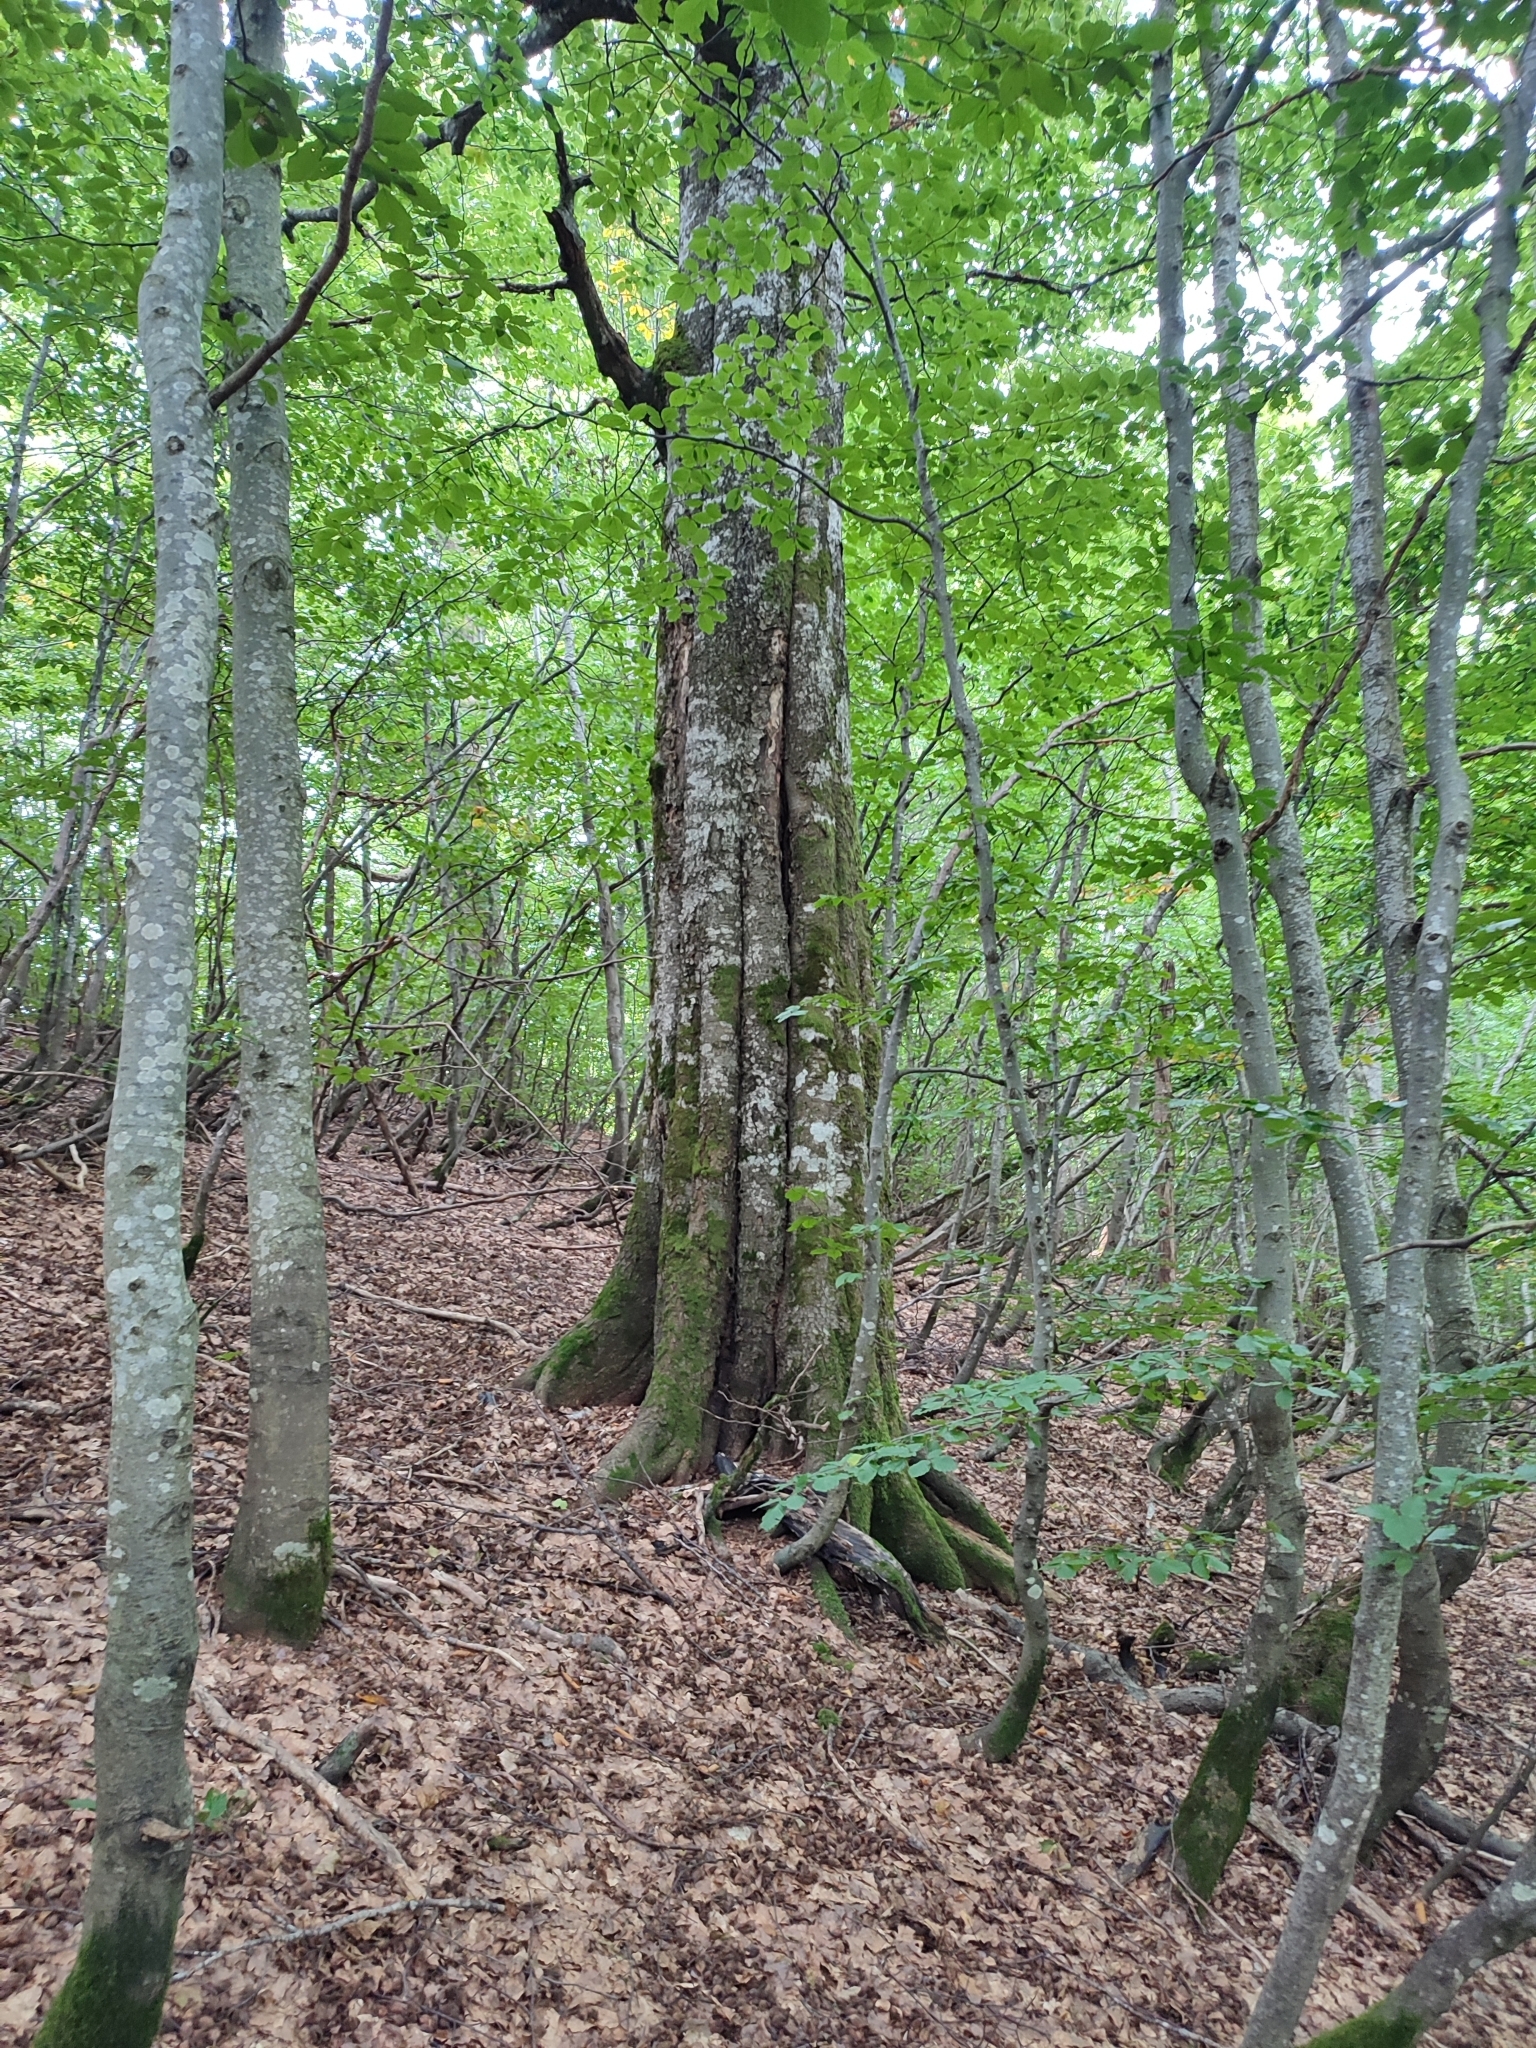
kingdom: Plantae
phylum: Tracheophyta
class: Magnoliopsida
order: Fagales
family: Fagaceae
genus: Fagus
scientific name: Fagus sylvatica
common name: Beech
